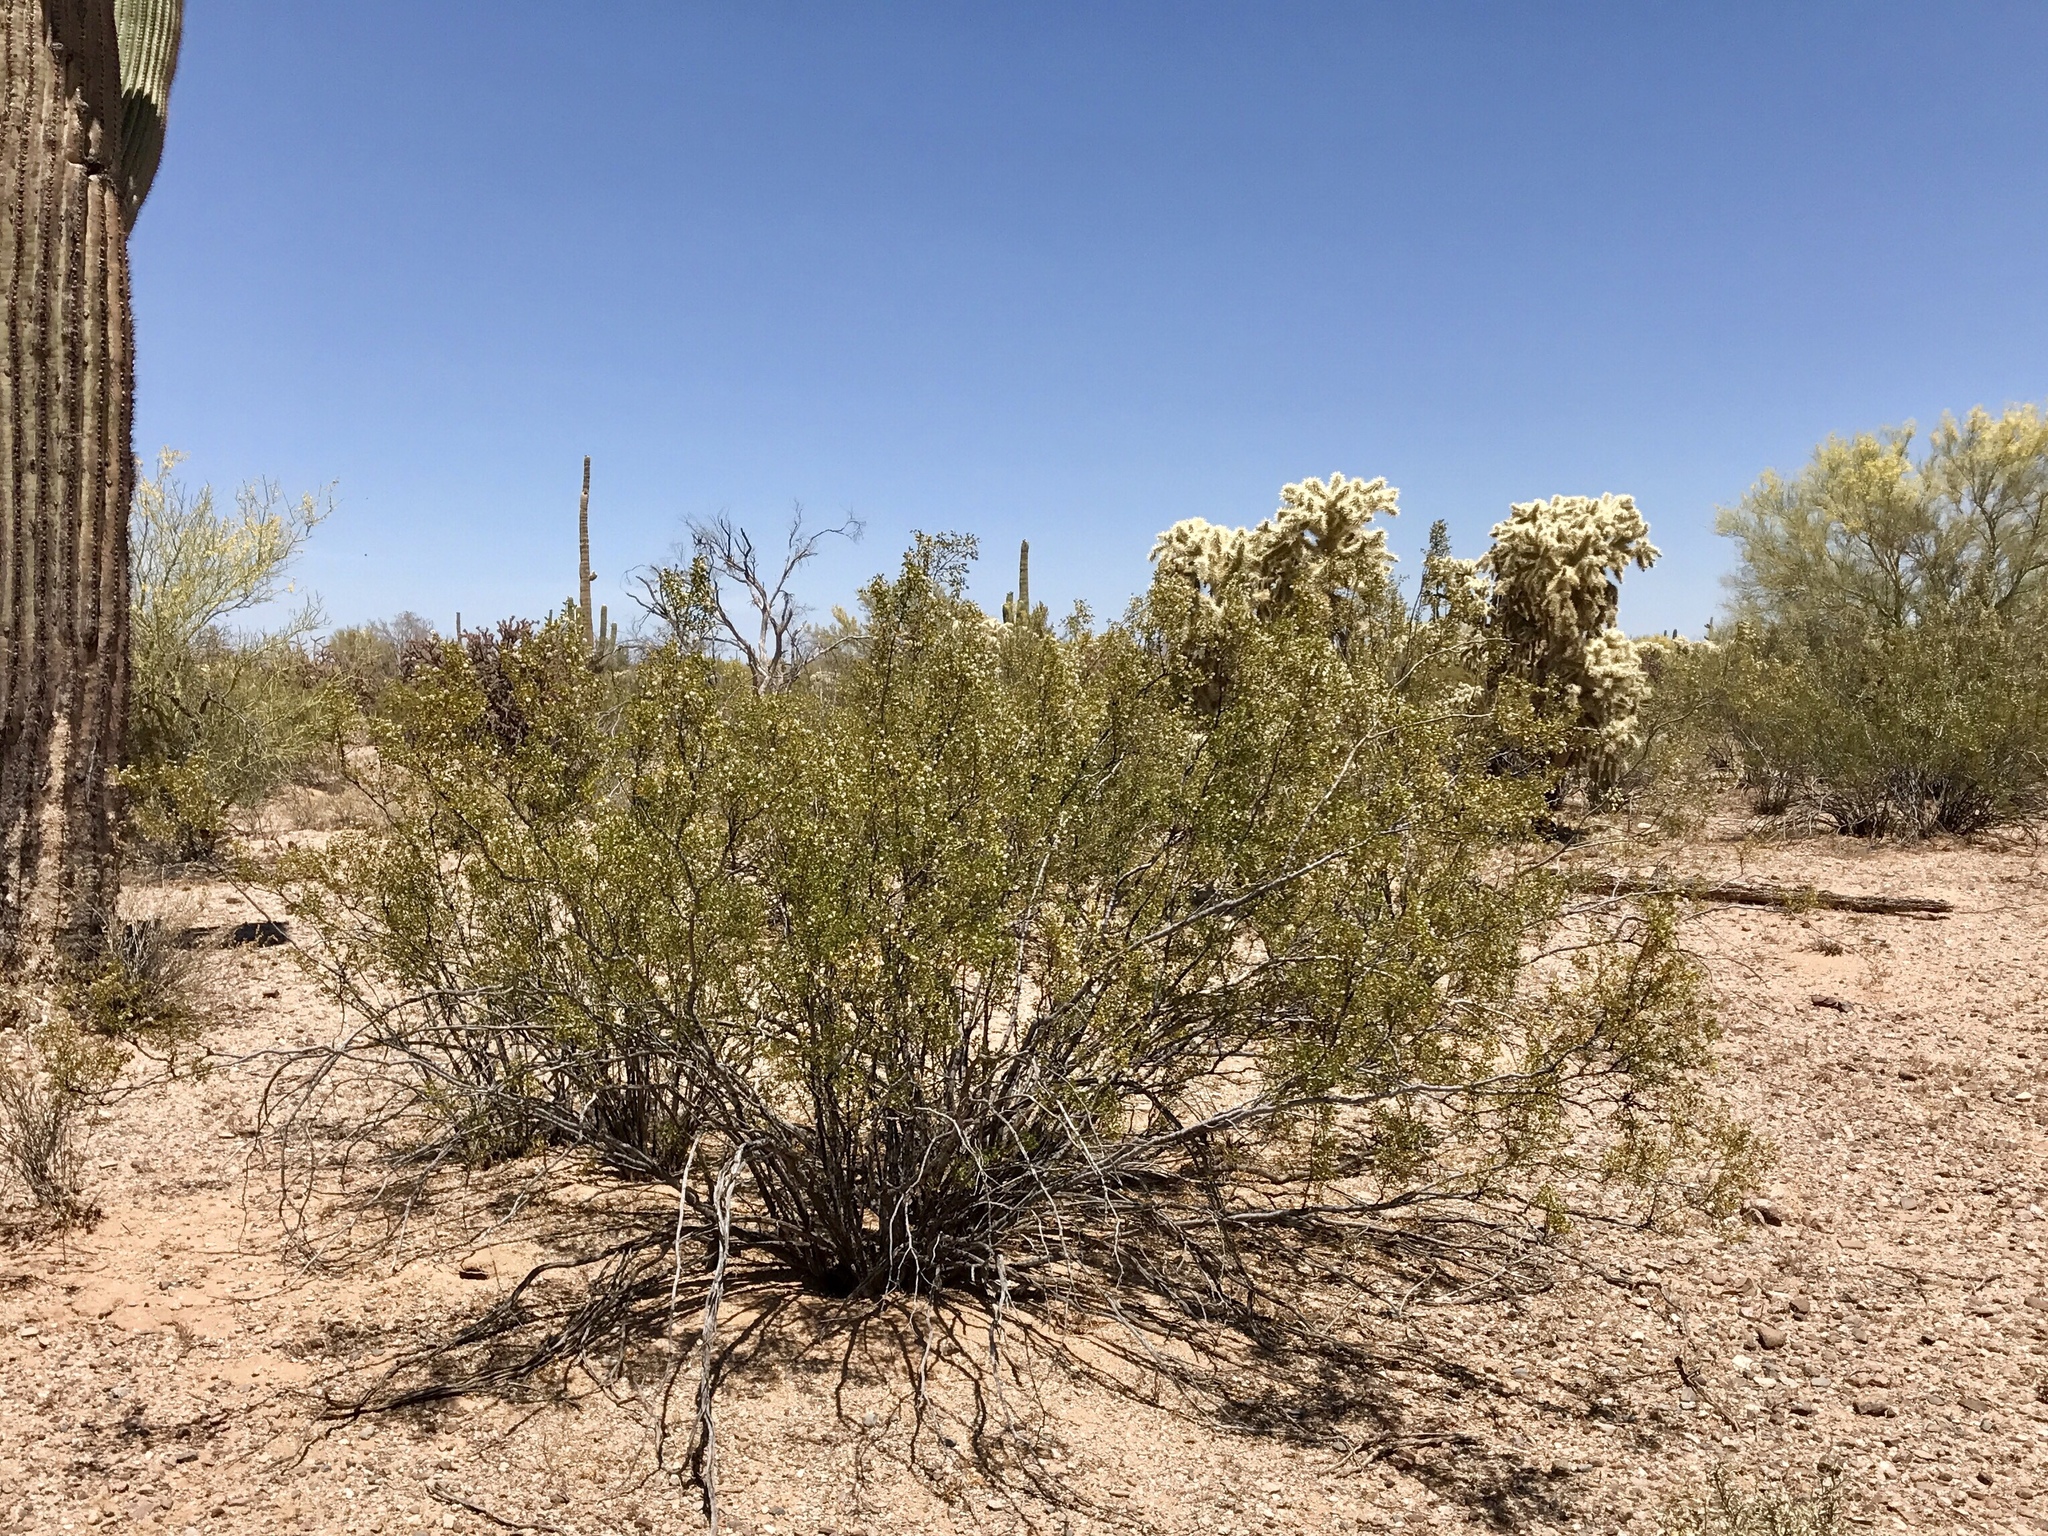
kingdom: Plantae
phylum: Tracheophyta
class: Magnoliopsida
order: Zygophyllales
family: Zygophyllaceae
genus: Larrea
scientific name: Larrea tridentata
